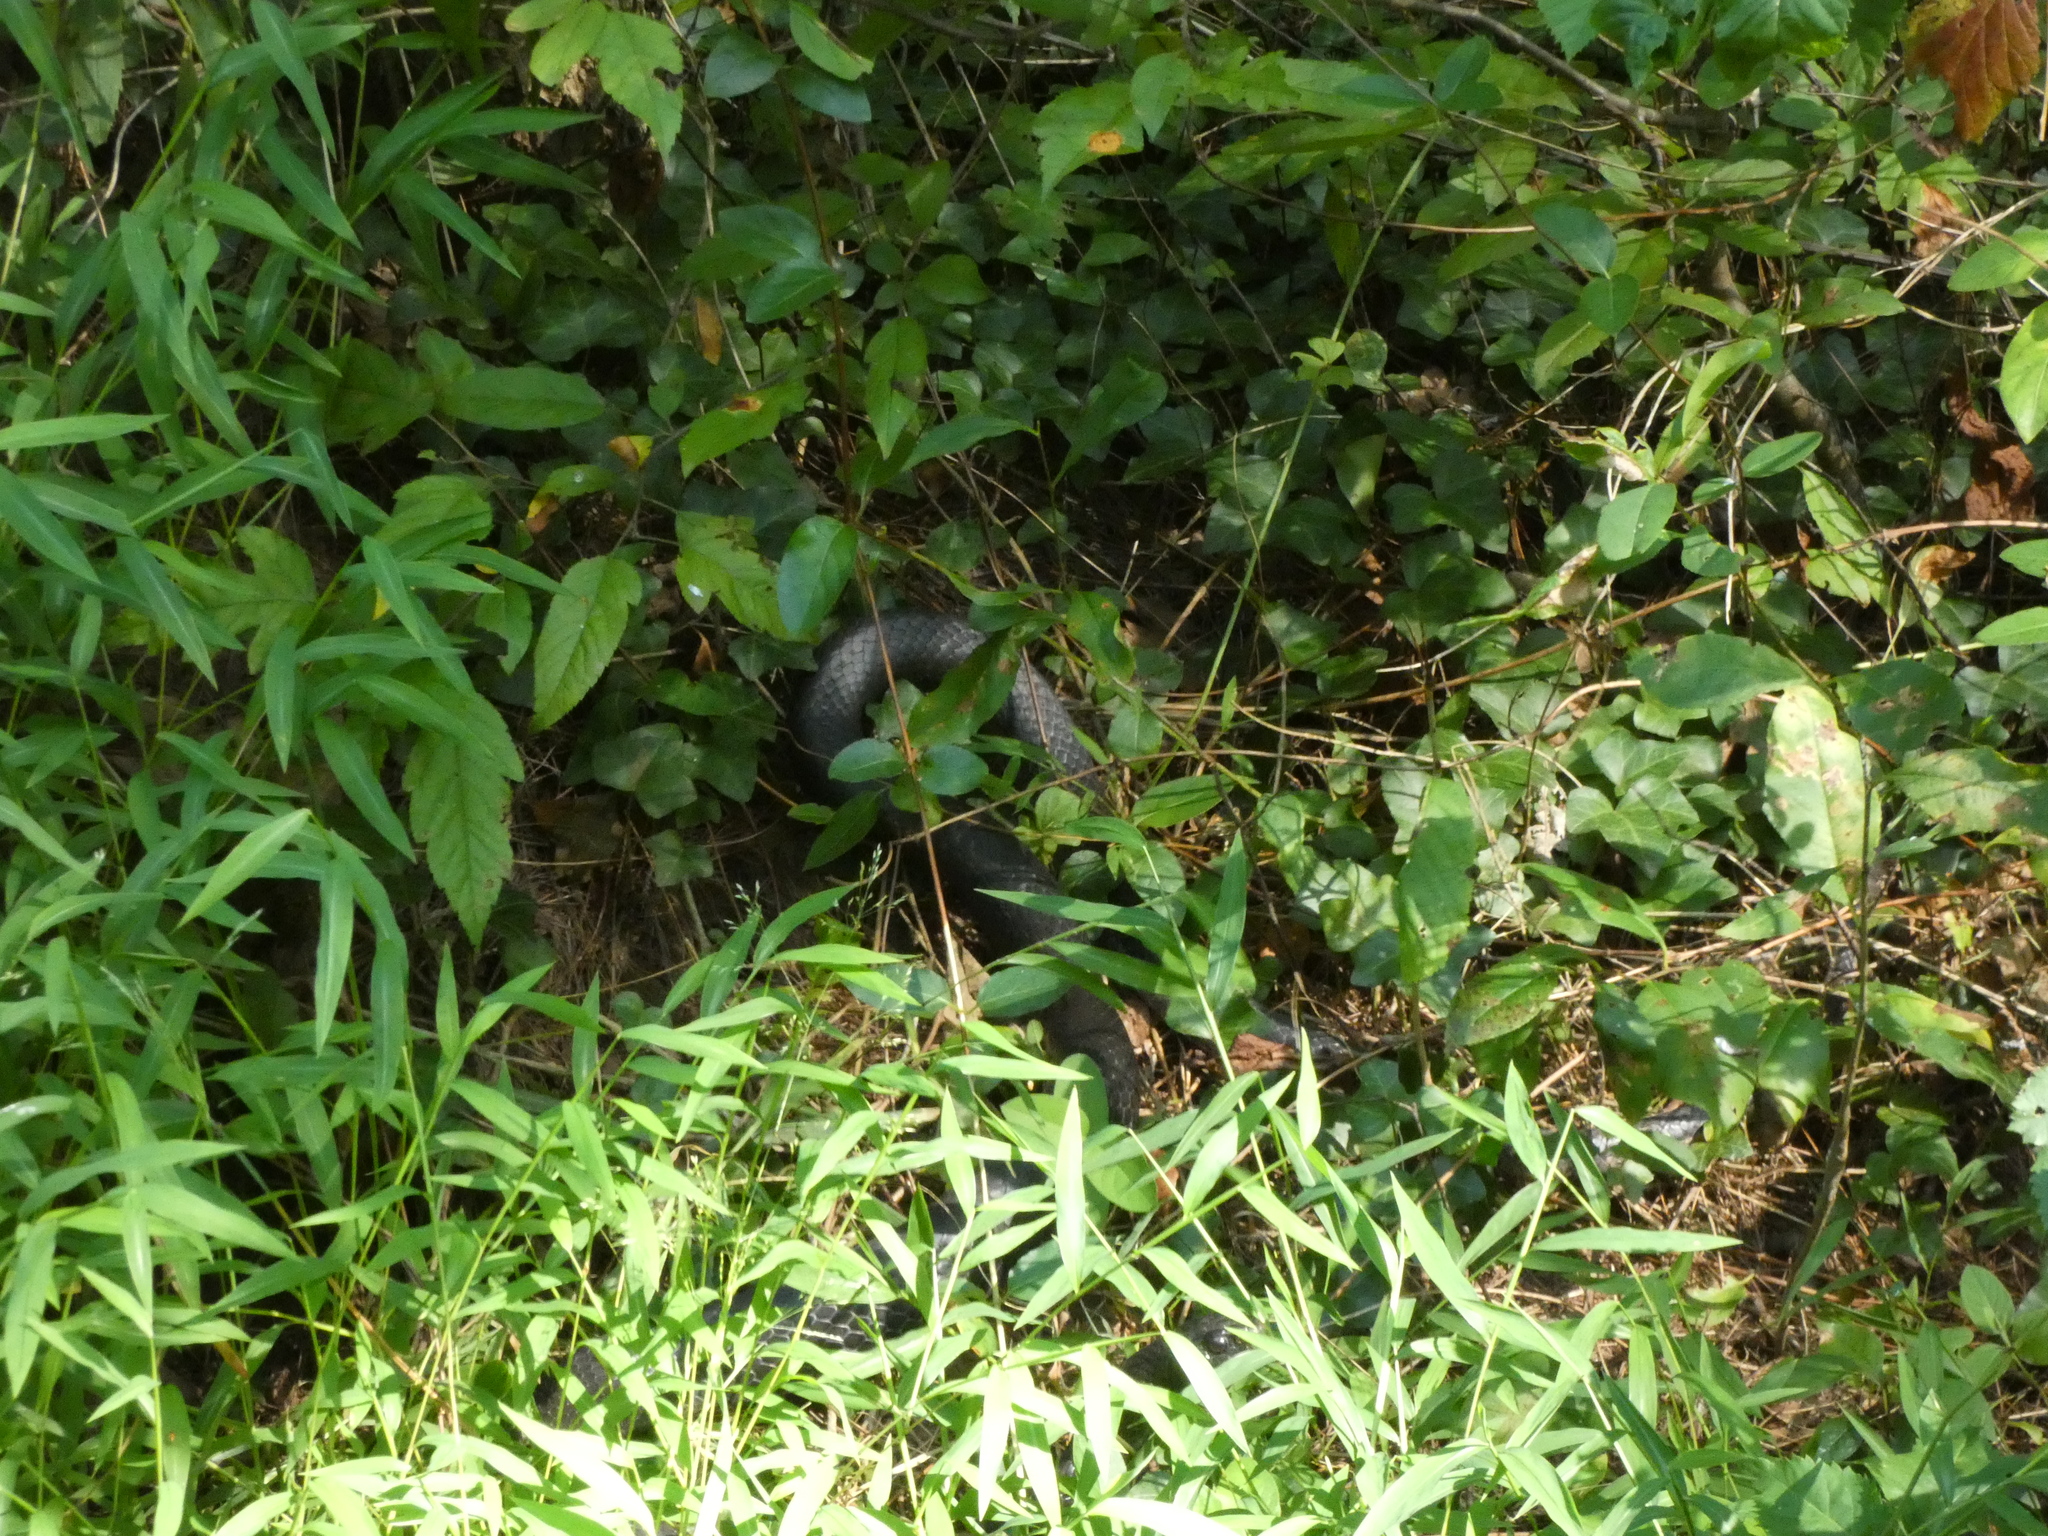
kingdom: Animalia
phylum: Chordata
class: Squamata
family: Colubridae
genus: Coluber
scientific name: Coluber constrictor
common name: Eastern racer
